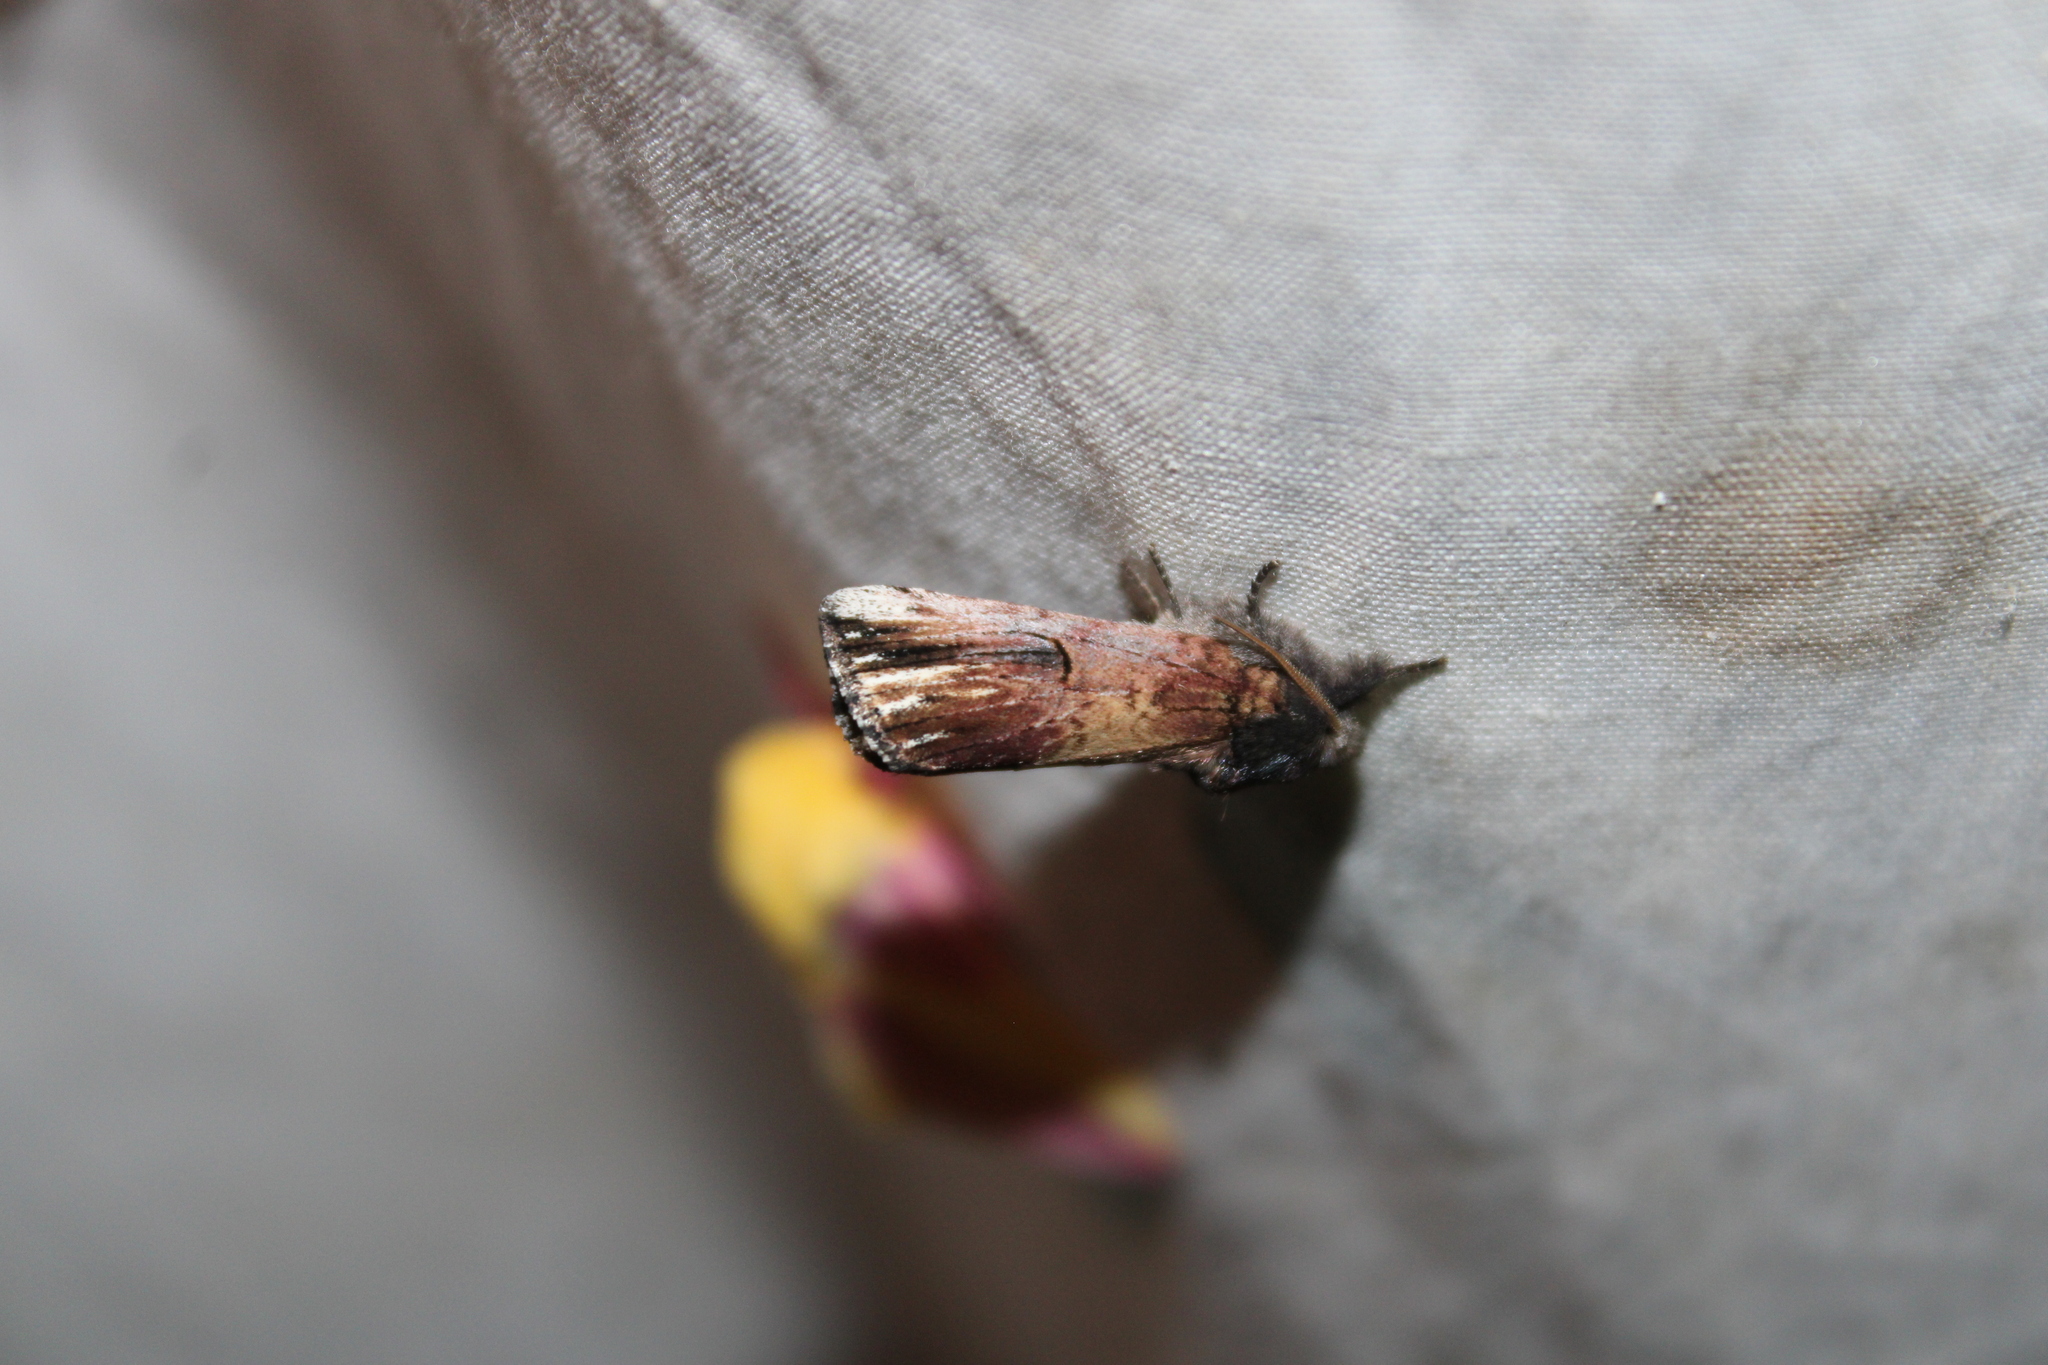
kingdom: Animalia
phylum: Arthropoda
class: Insecta
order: Lepidoptera
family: Notodontidae
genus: Schizura
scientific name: Schizura badia
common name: Chestnut schizura
